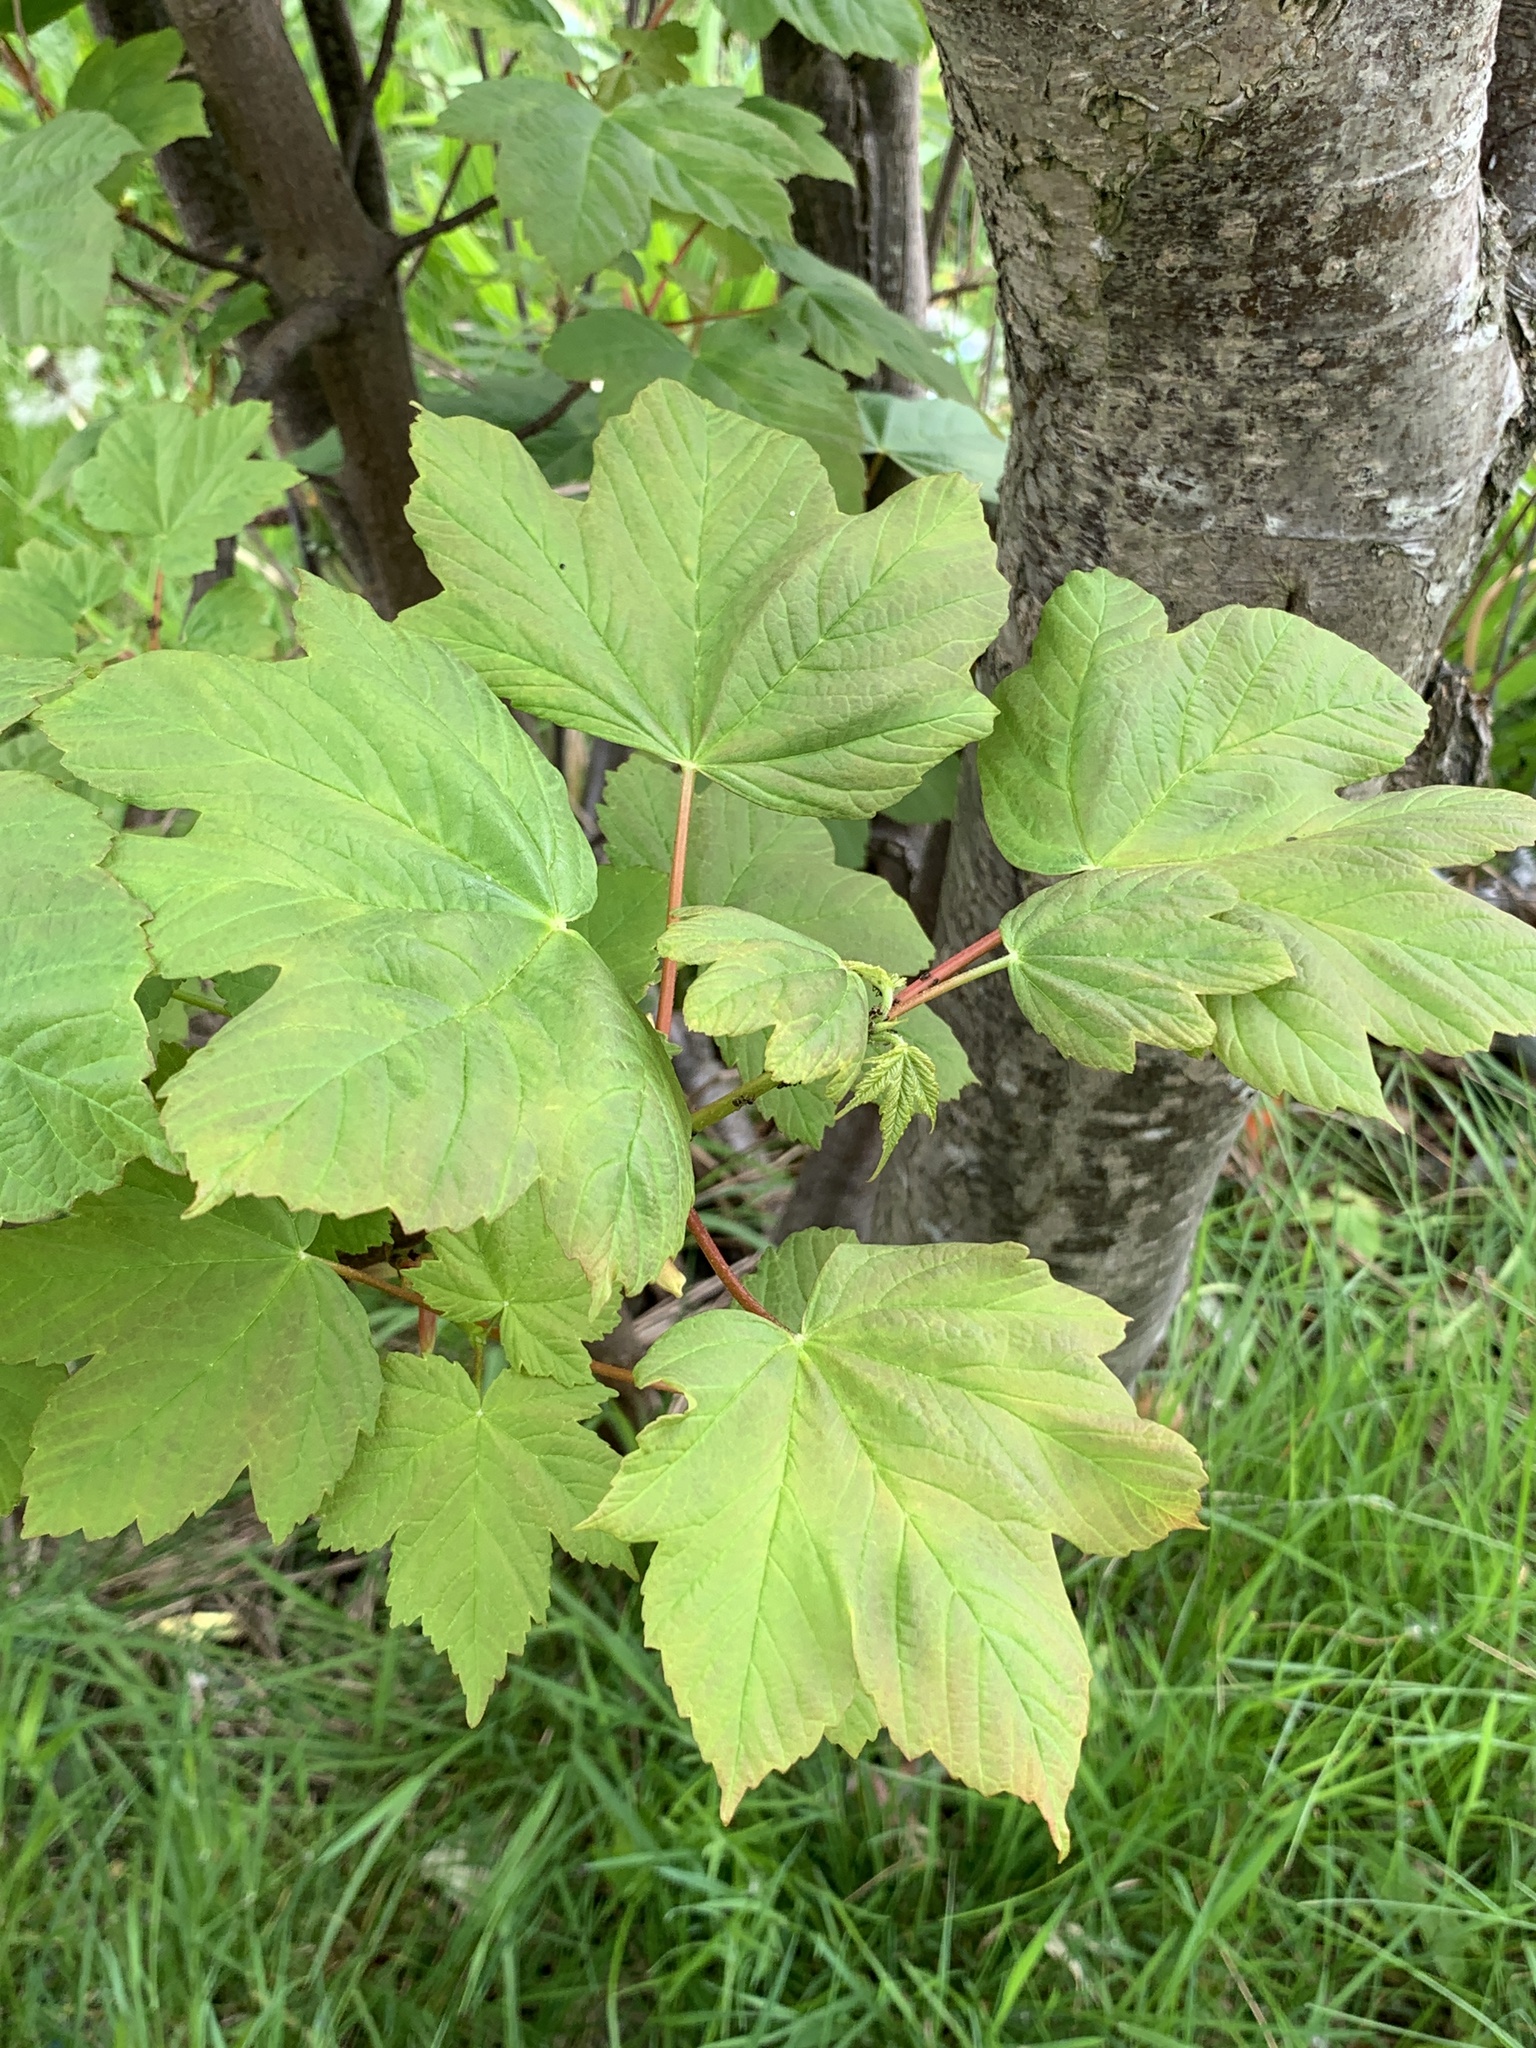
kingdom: Plantae
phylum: Tracheophyta
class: Magnoliopsida
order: Sapindales
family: Sapindaceae
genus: Acer
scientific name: Acer pseudoplatanus
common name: Sycamore
